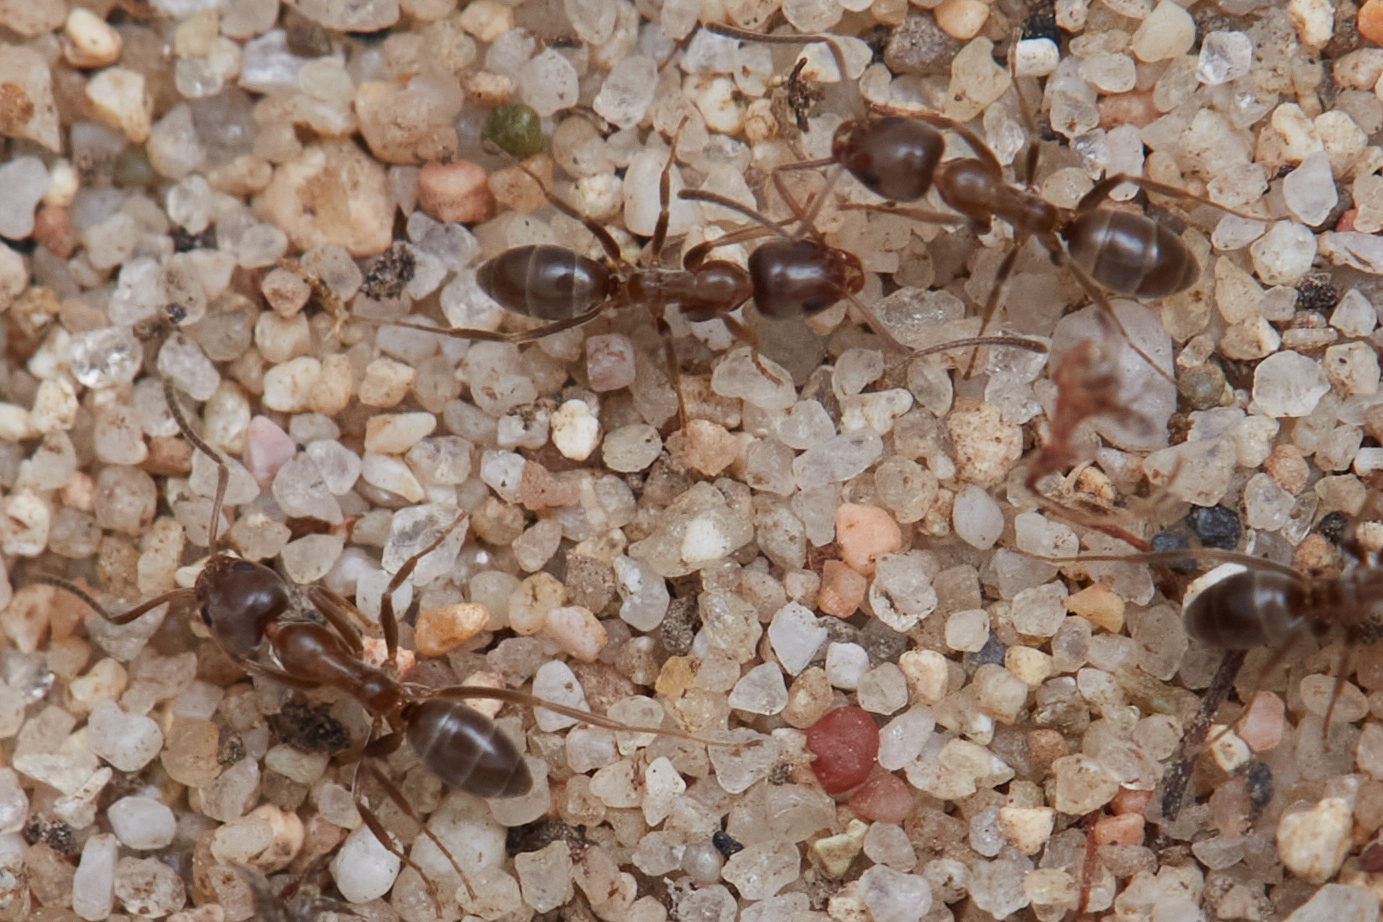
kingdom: Animalia
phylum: Arthropoda
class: Insecta
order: Hymenoptera
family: Formicidae
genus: Linepithema
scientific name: Linepithema humile
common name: Argentine ant
